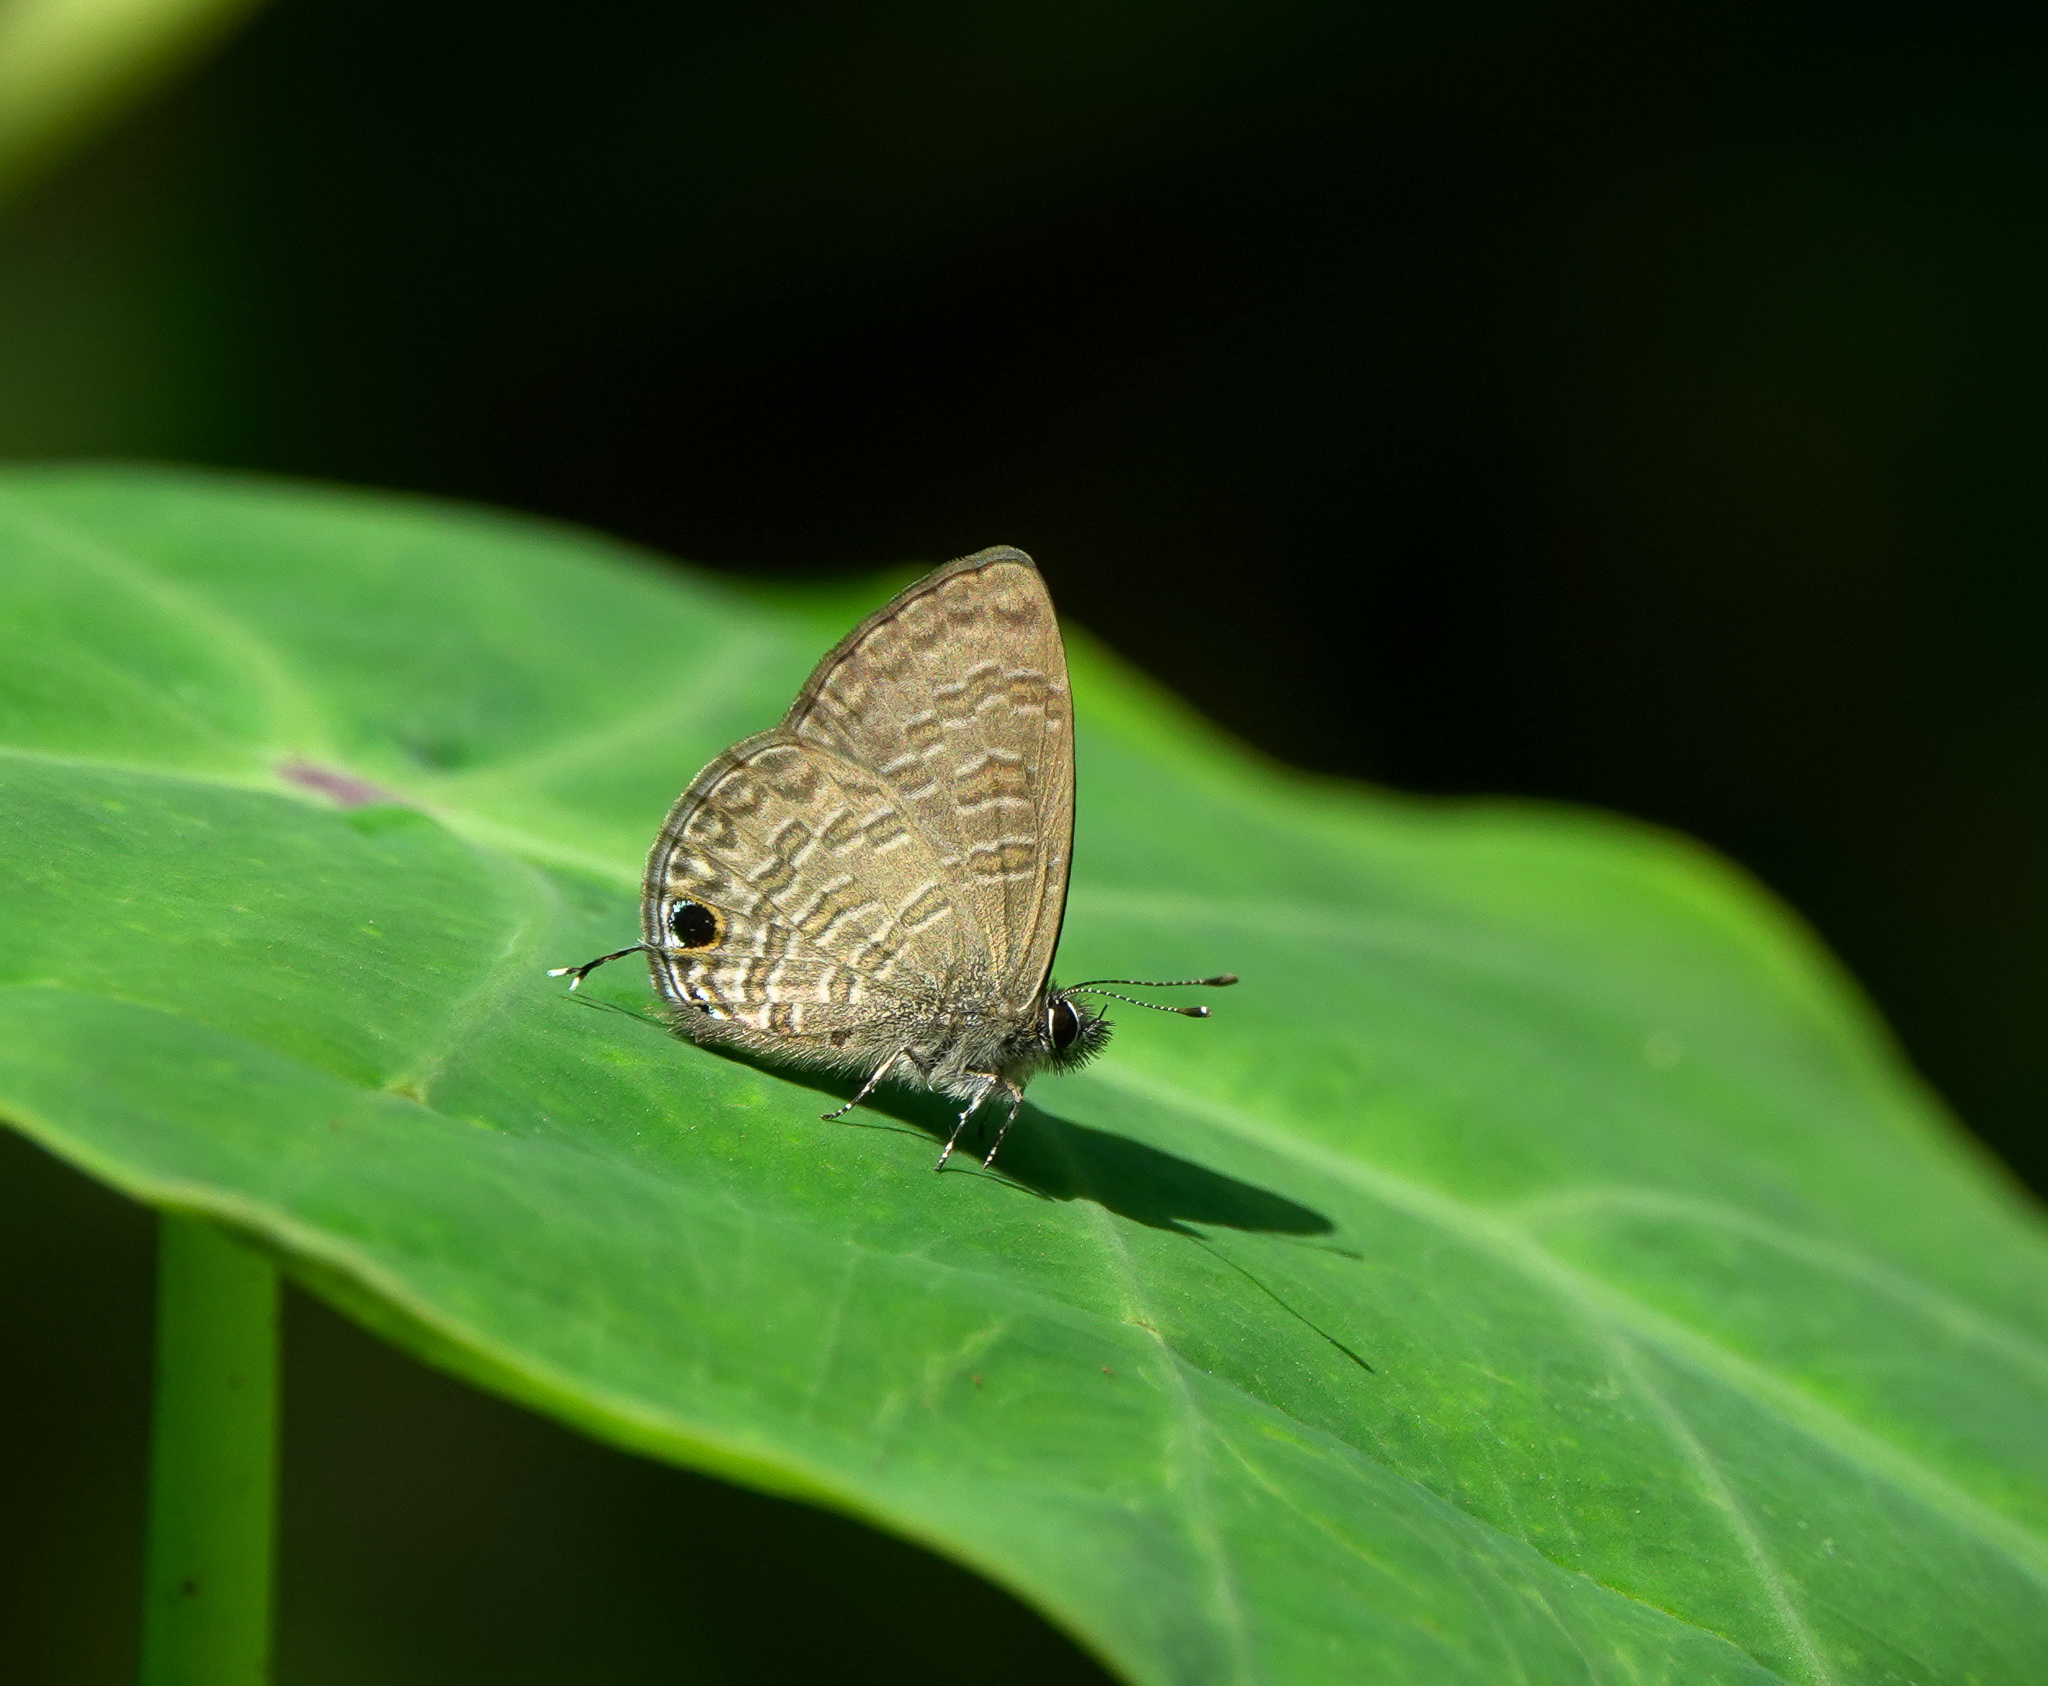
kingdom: Animalia
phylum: Arthropoda
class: Insecta
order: Lepidoptera
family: Lycaenidae
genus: Prosotas
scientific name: Prosotas nora
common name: Common line blue
